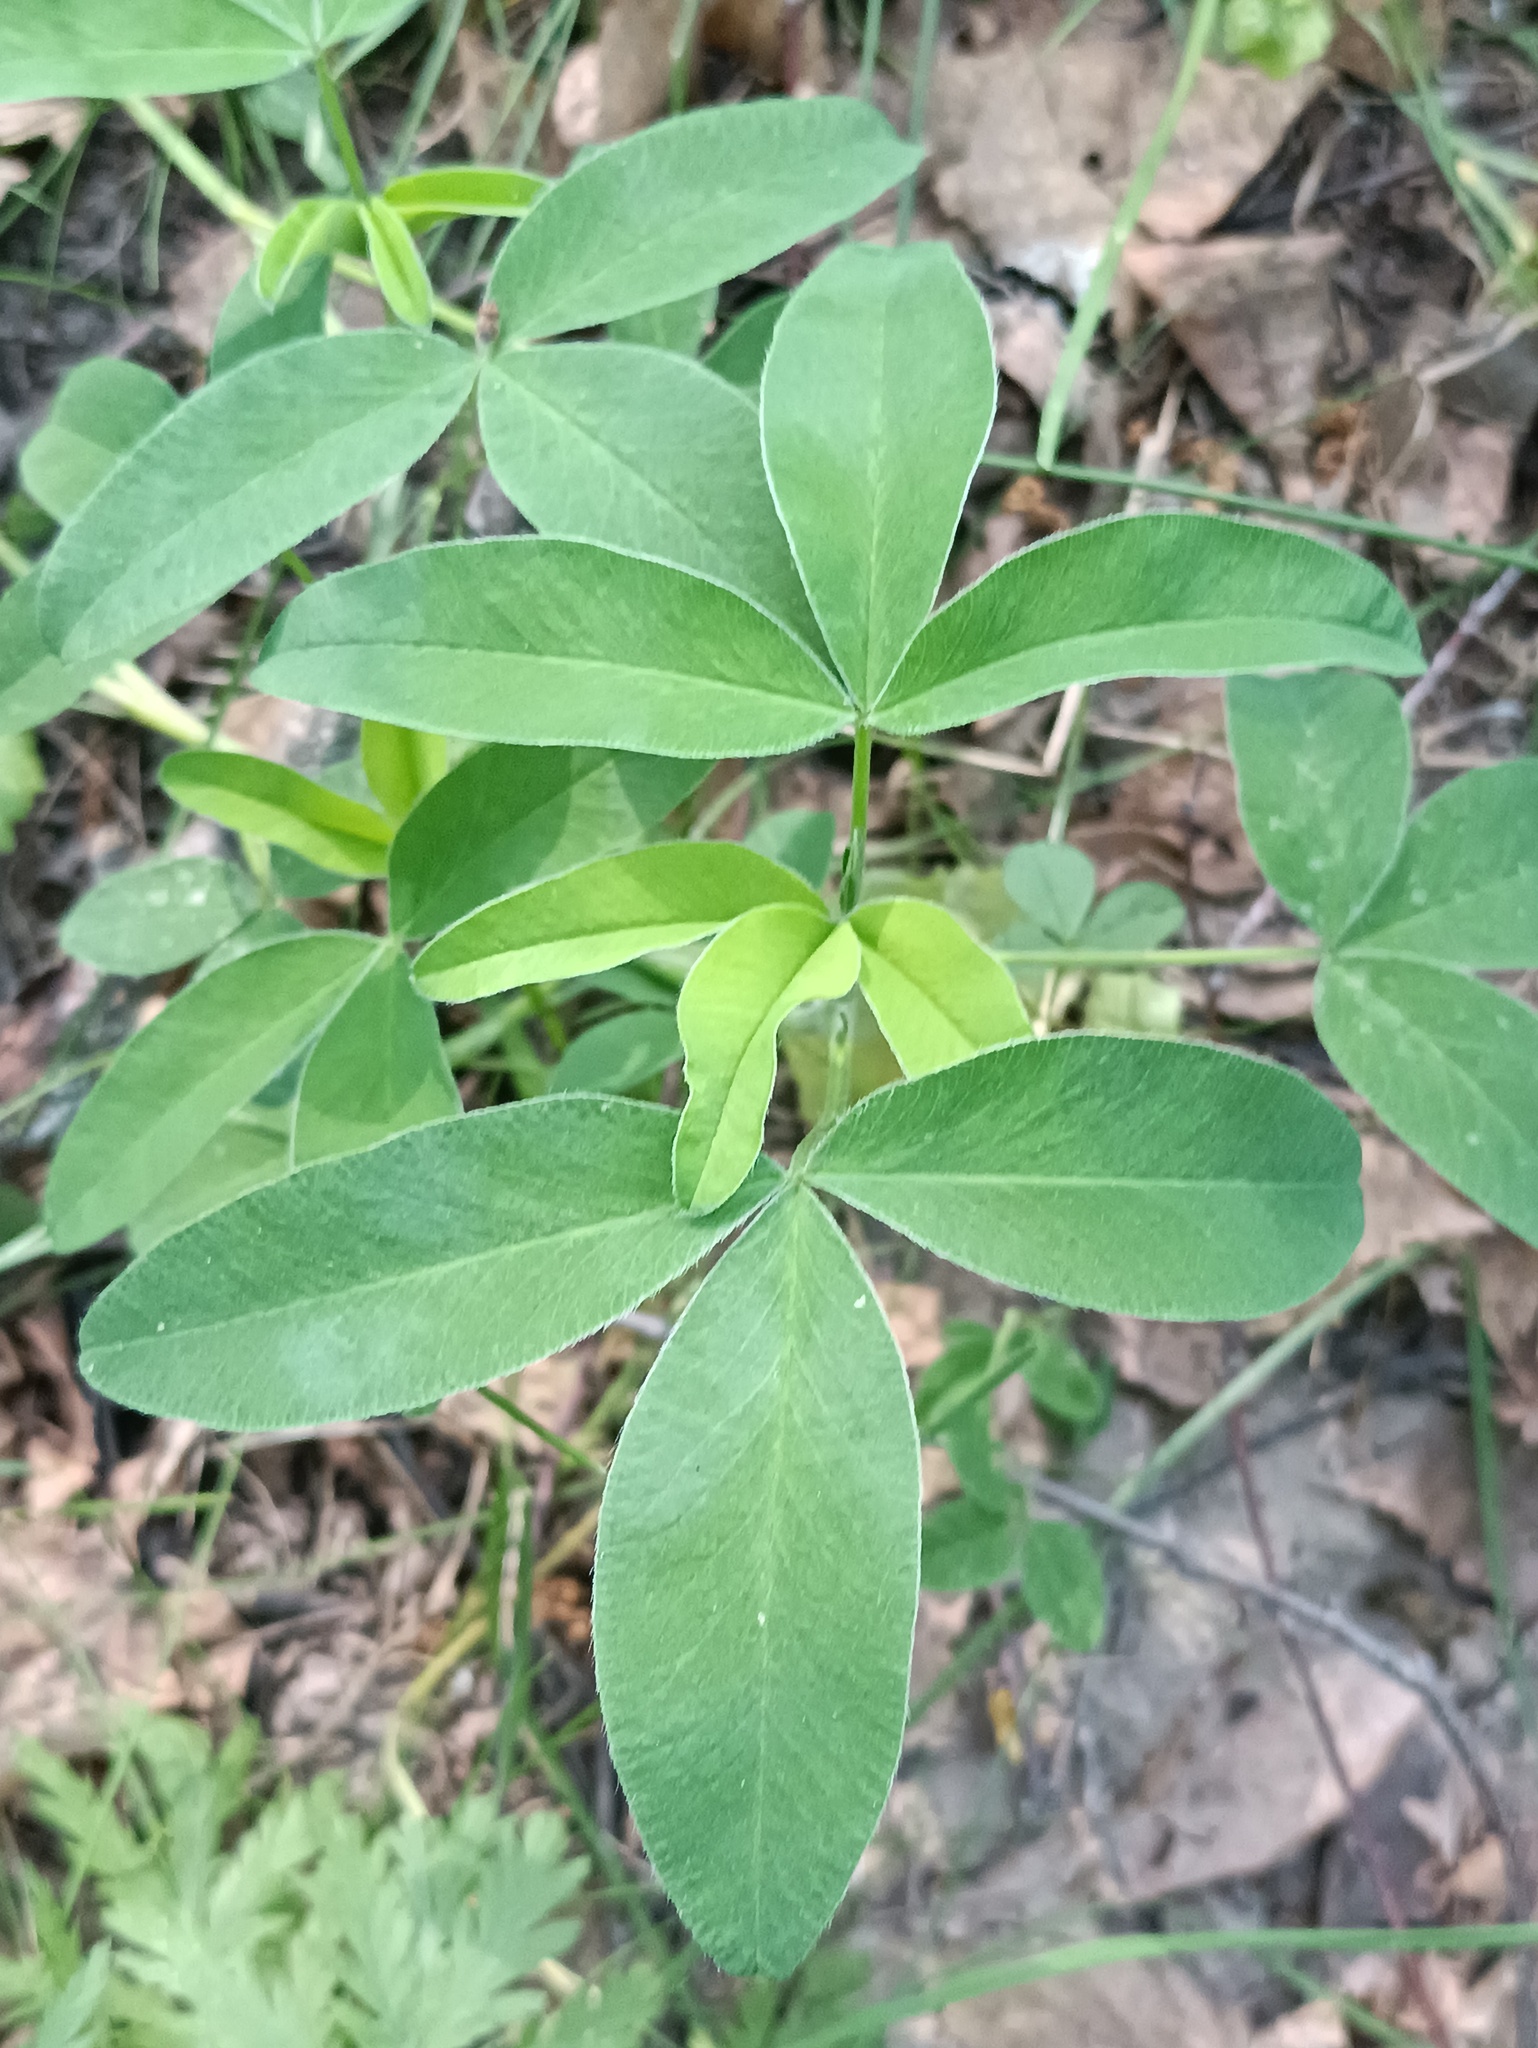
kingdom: Plantae
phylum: Tracheophyta
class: Magnoliopsida
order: Fabales
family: Fabaceae
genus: Trifolium
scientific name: Trifolium medium
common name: Zigzag clover
